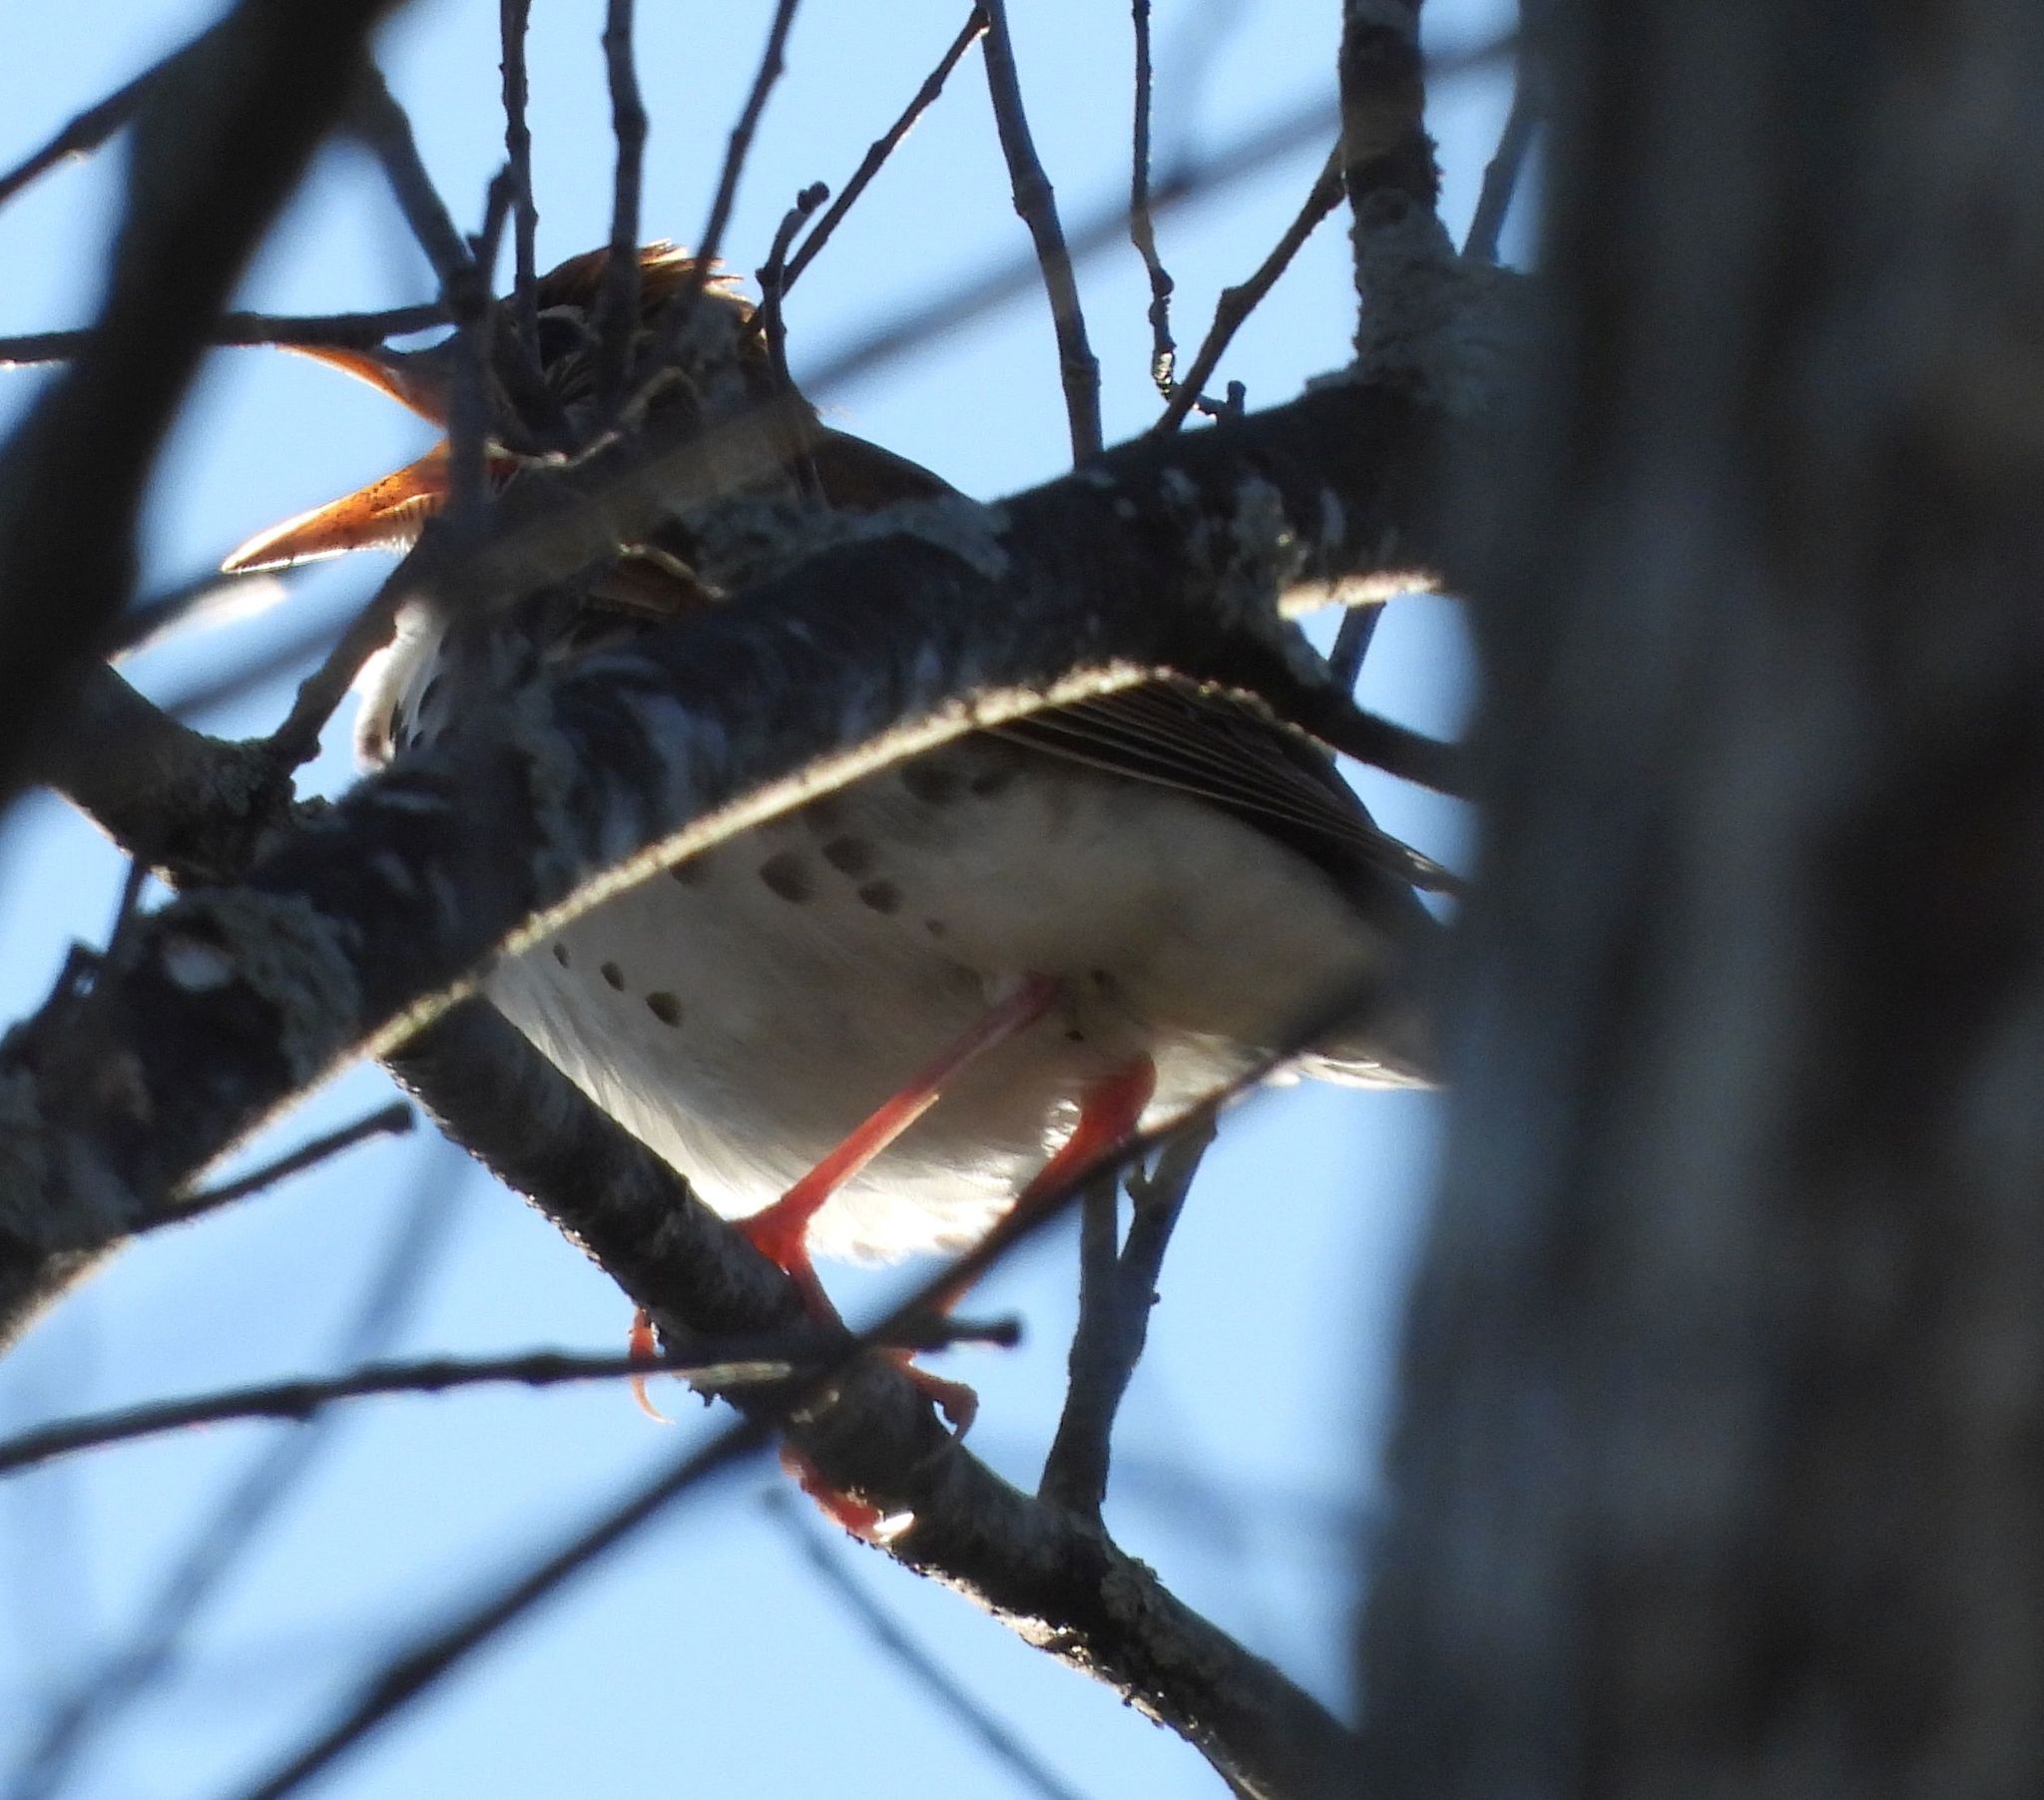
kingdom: Animalia
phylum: Chordata
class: Aves
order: Passeriformes
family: Turdidae
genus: Hylocichla
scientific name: Hylocichla mustelina
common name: Wood thrush
